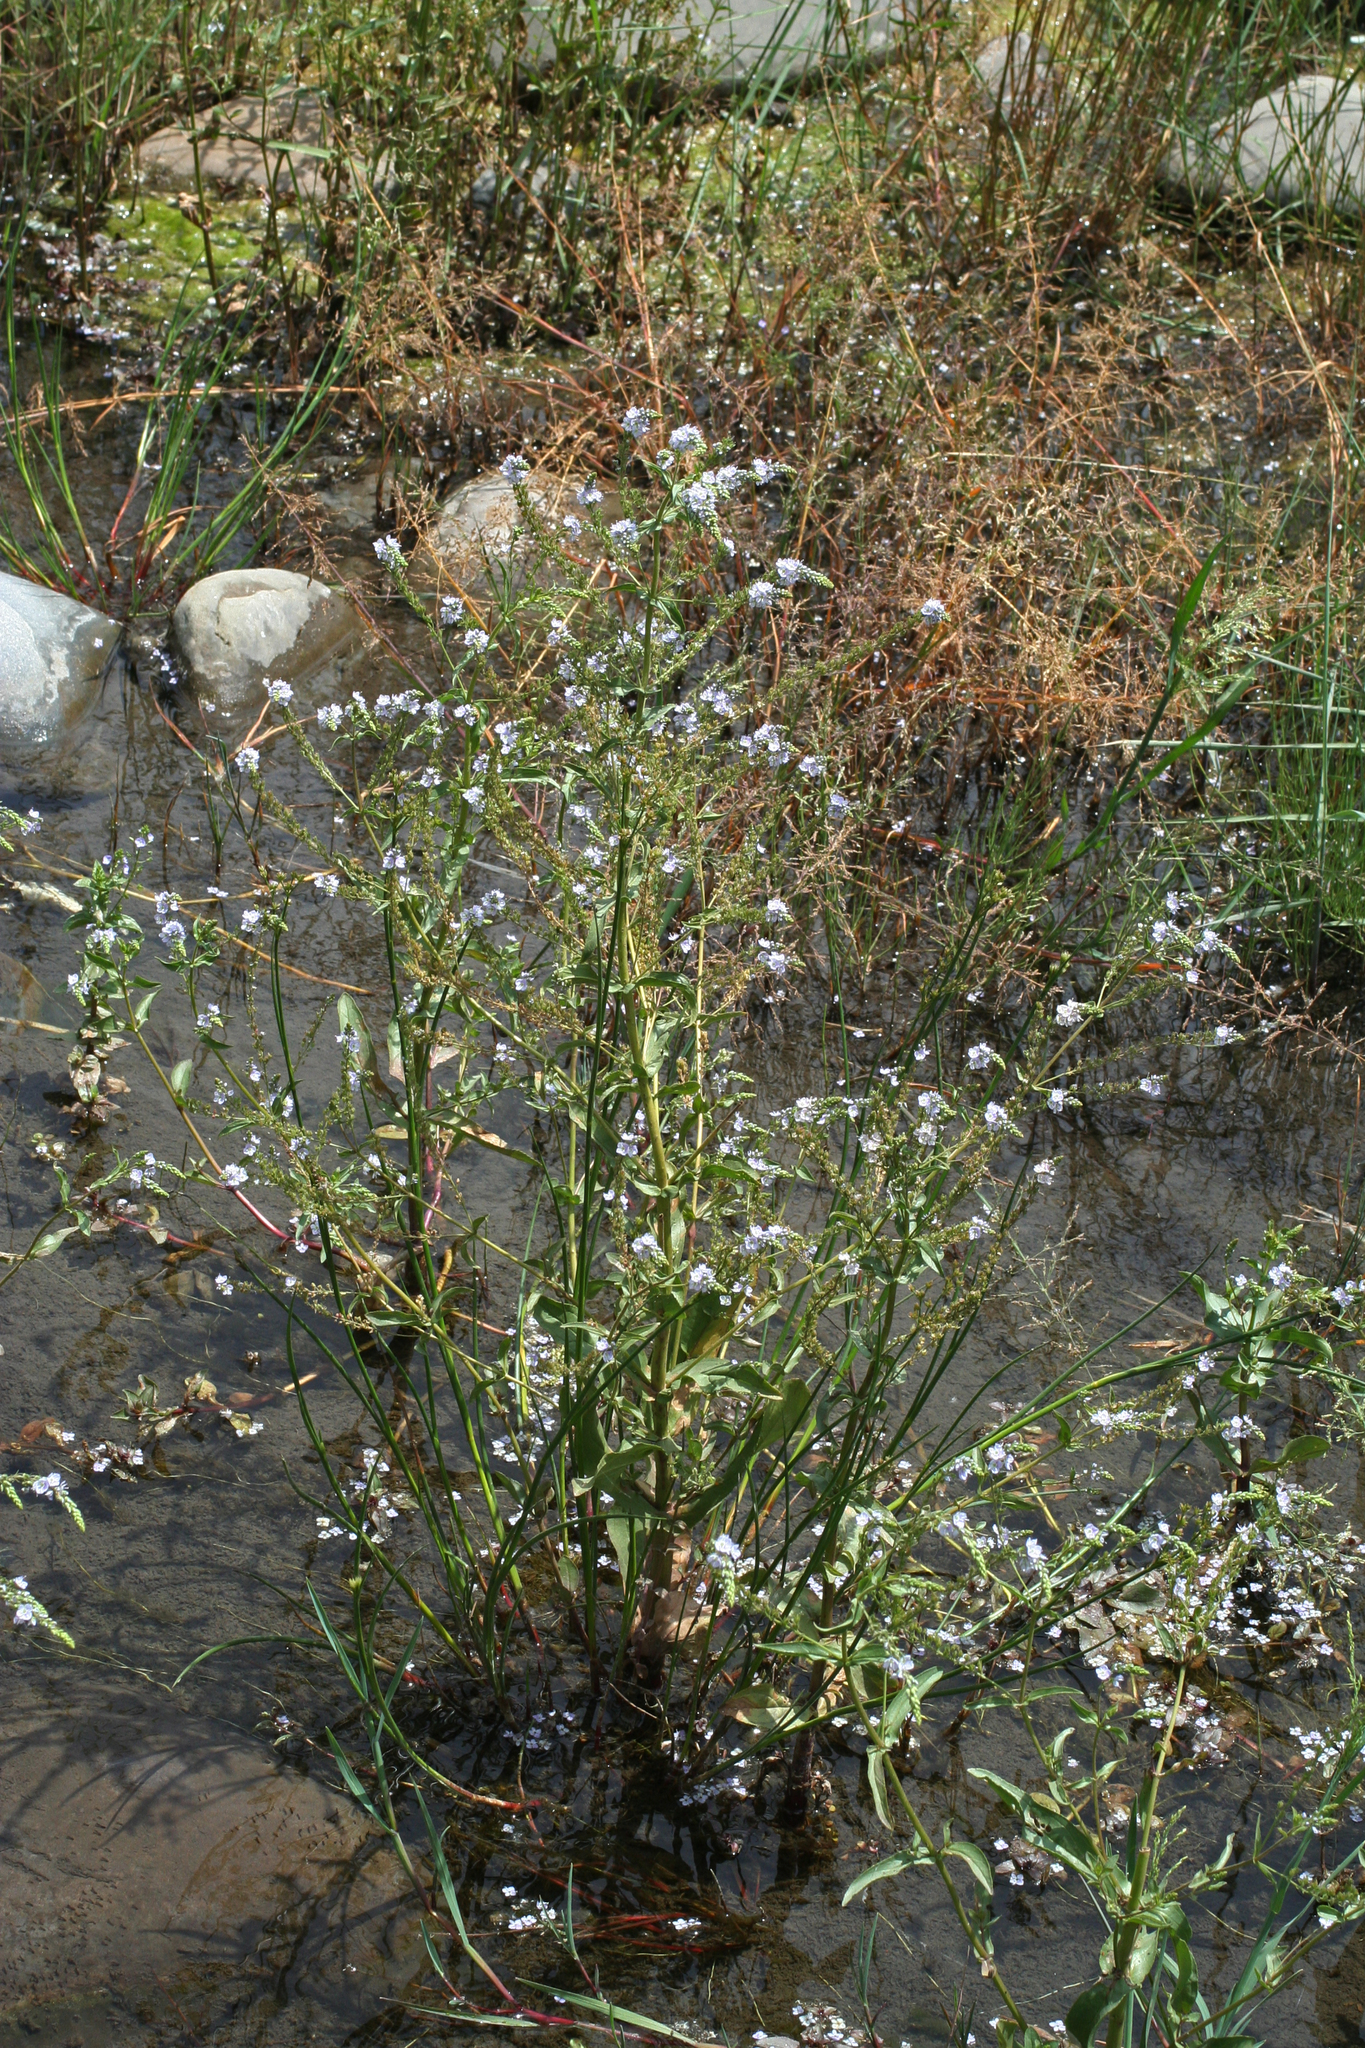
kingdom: Plantae
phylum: Tracheophyta
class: Magnoliopsida
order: Lamiales
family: Plantaginaceae
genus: Veronica
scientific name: Veronica anagallis-aquatica
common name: Water speedwell
